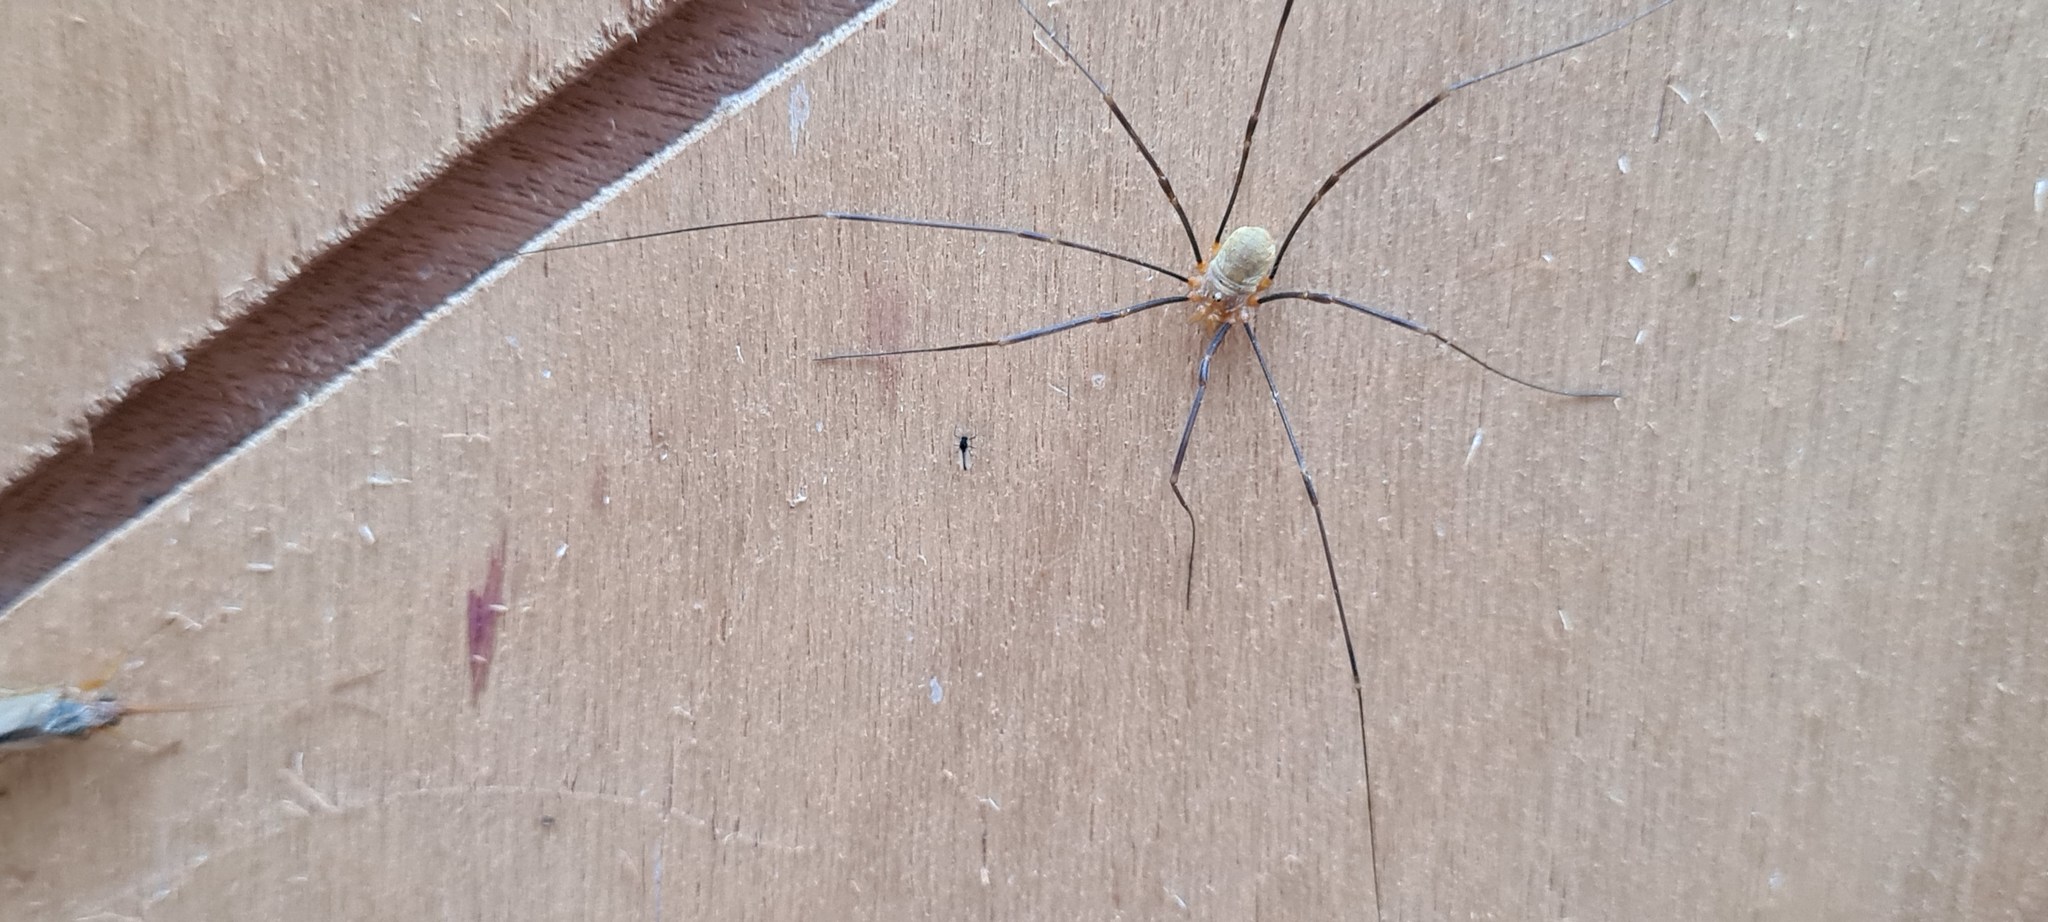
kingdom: Animalia
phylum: Arthropoda
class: Arachnida
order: Opiliones
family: Phalangiidae
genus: Opilio
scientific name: Opilio canestrinii
